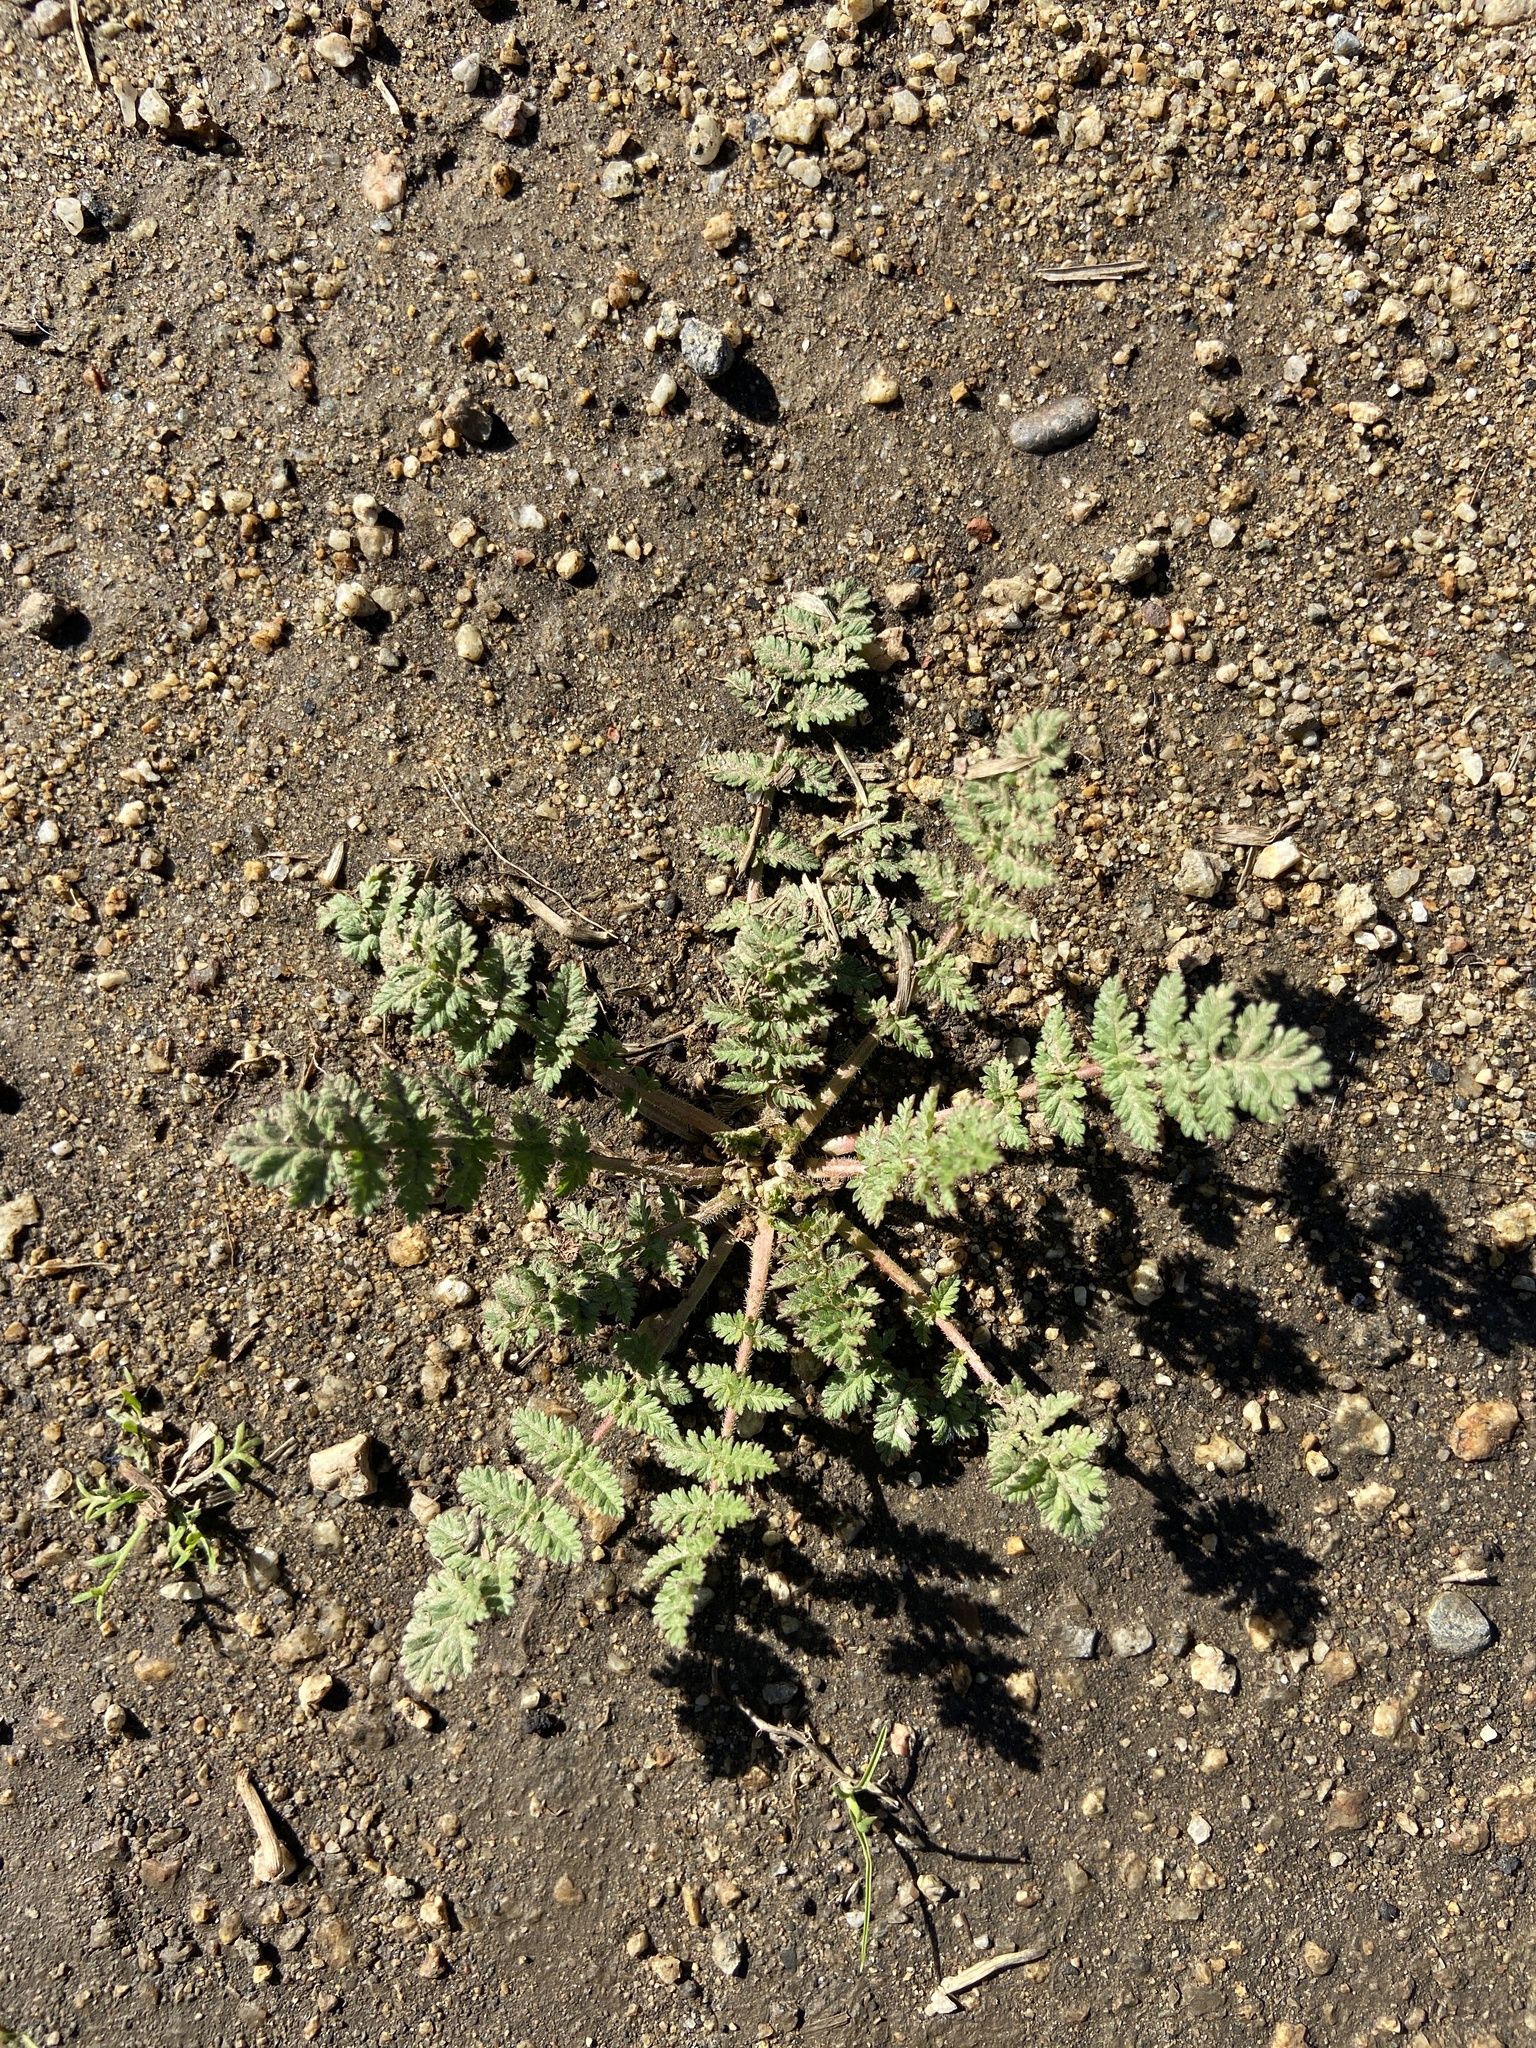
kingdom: Plantae
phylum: Tracheophyta
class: Magnoliopsida
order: Geraniales
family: Geraniaceae
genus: Erodium
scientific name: Erodium cicutarium
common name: Common stork's-bill
